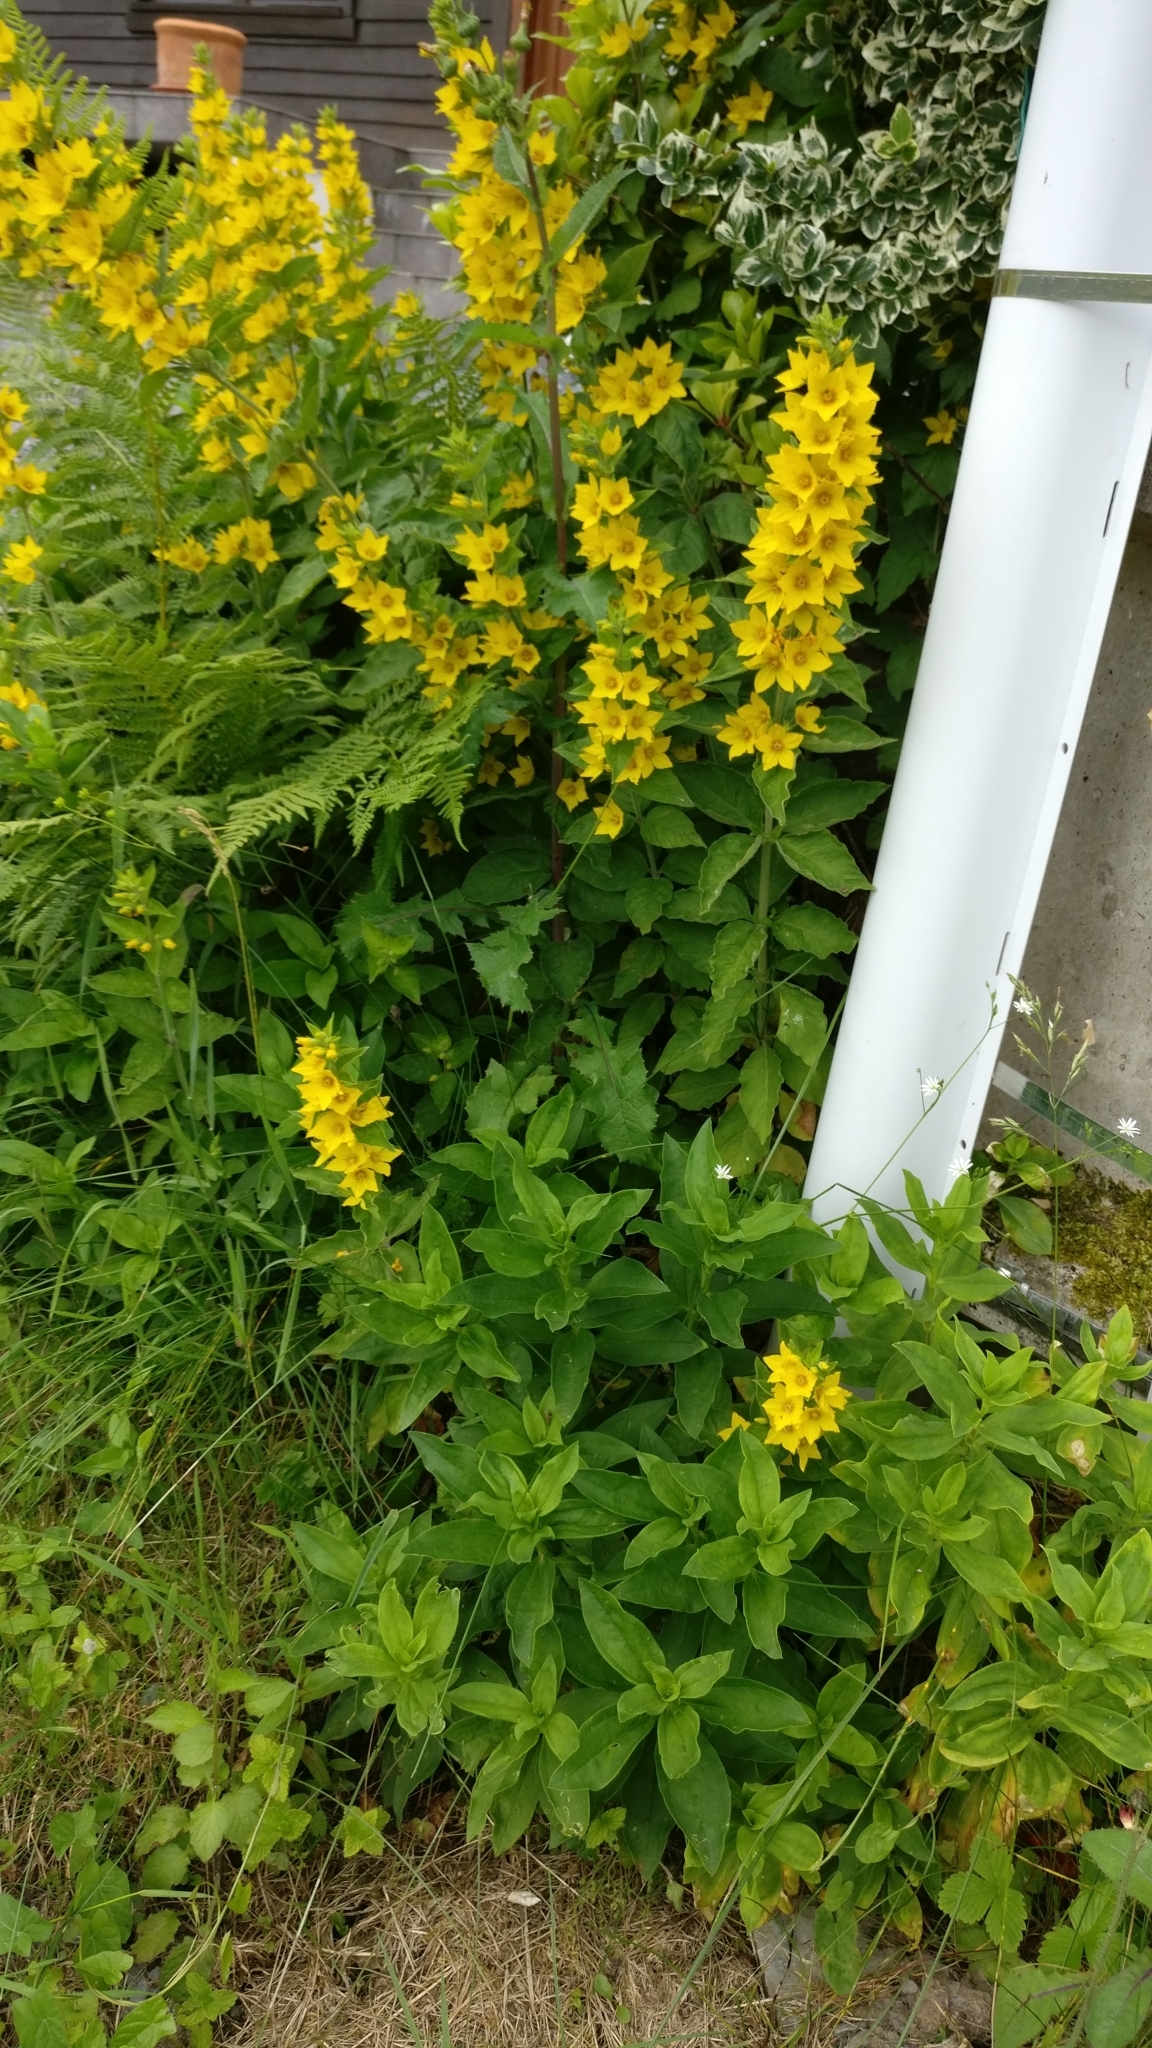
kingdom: Plantae
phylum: Tracheophyta
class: Magnoliopsida
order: Ericales
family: Primulaceae
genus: Lysimachia
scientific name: Lysimachia punctata
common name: Dotted loosestrife
